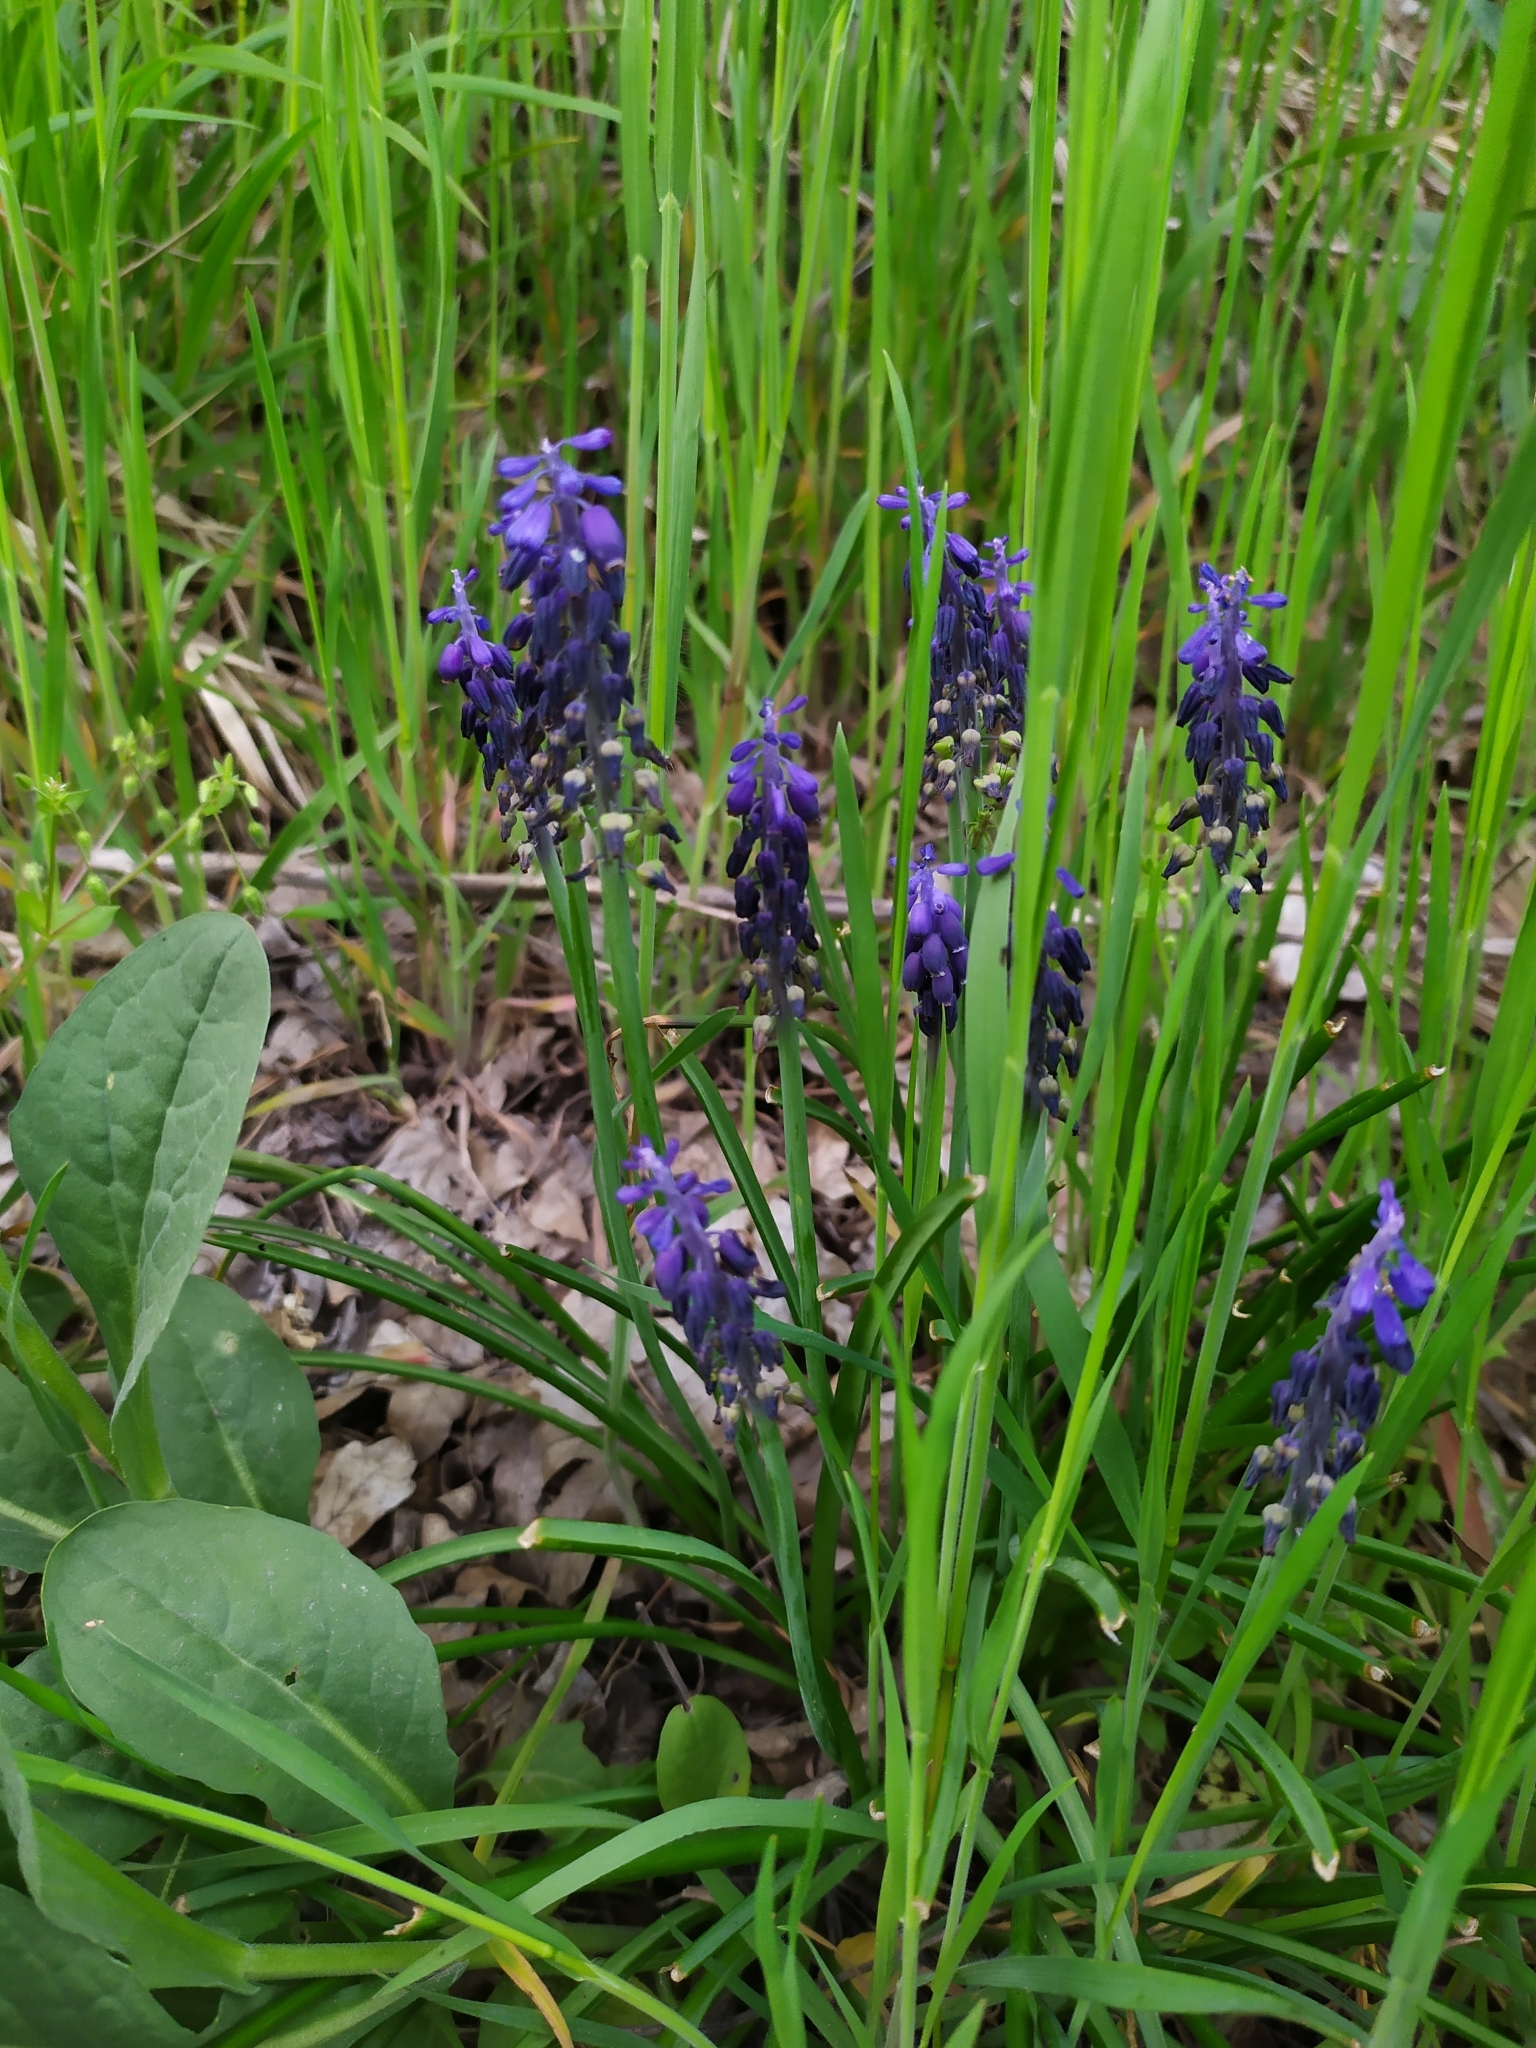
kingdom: Plantae
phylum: Tracheophyta
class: Liliopsida
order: Asparagales
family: Asparagaceae
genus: Muscari
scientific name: Muscari neglectum
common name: Grape-hyacinth
